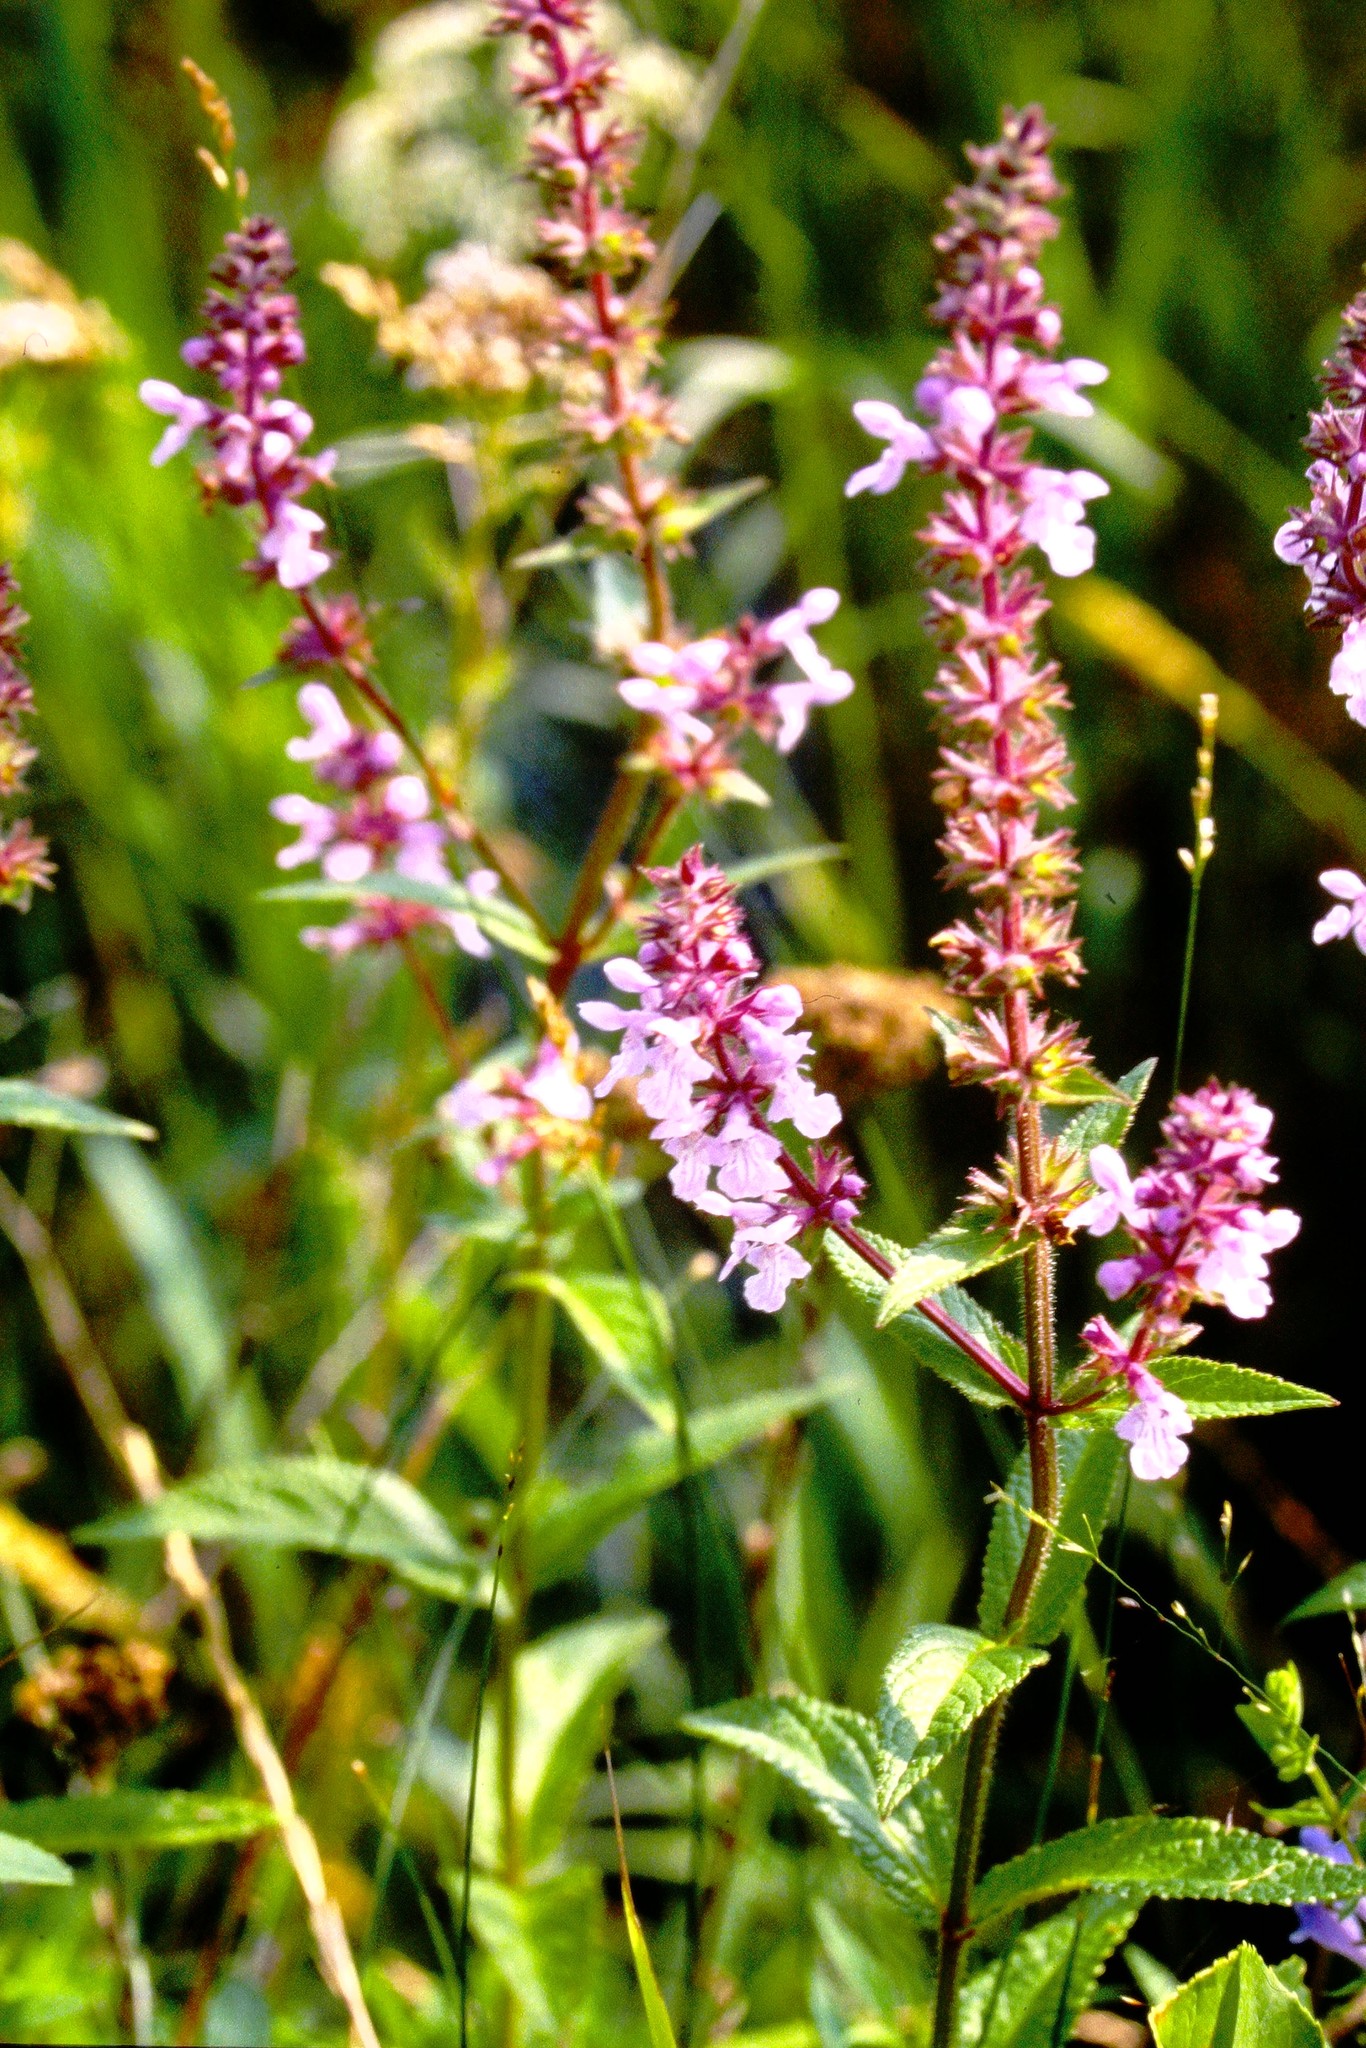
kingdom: Plantae
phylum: Tracheophyta
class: Magnoliopsida
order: Lamiales
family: Lamiaceae
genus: Stachys
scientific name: Stachys palustris
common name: Marsh woundwort
